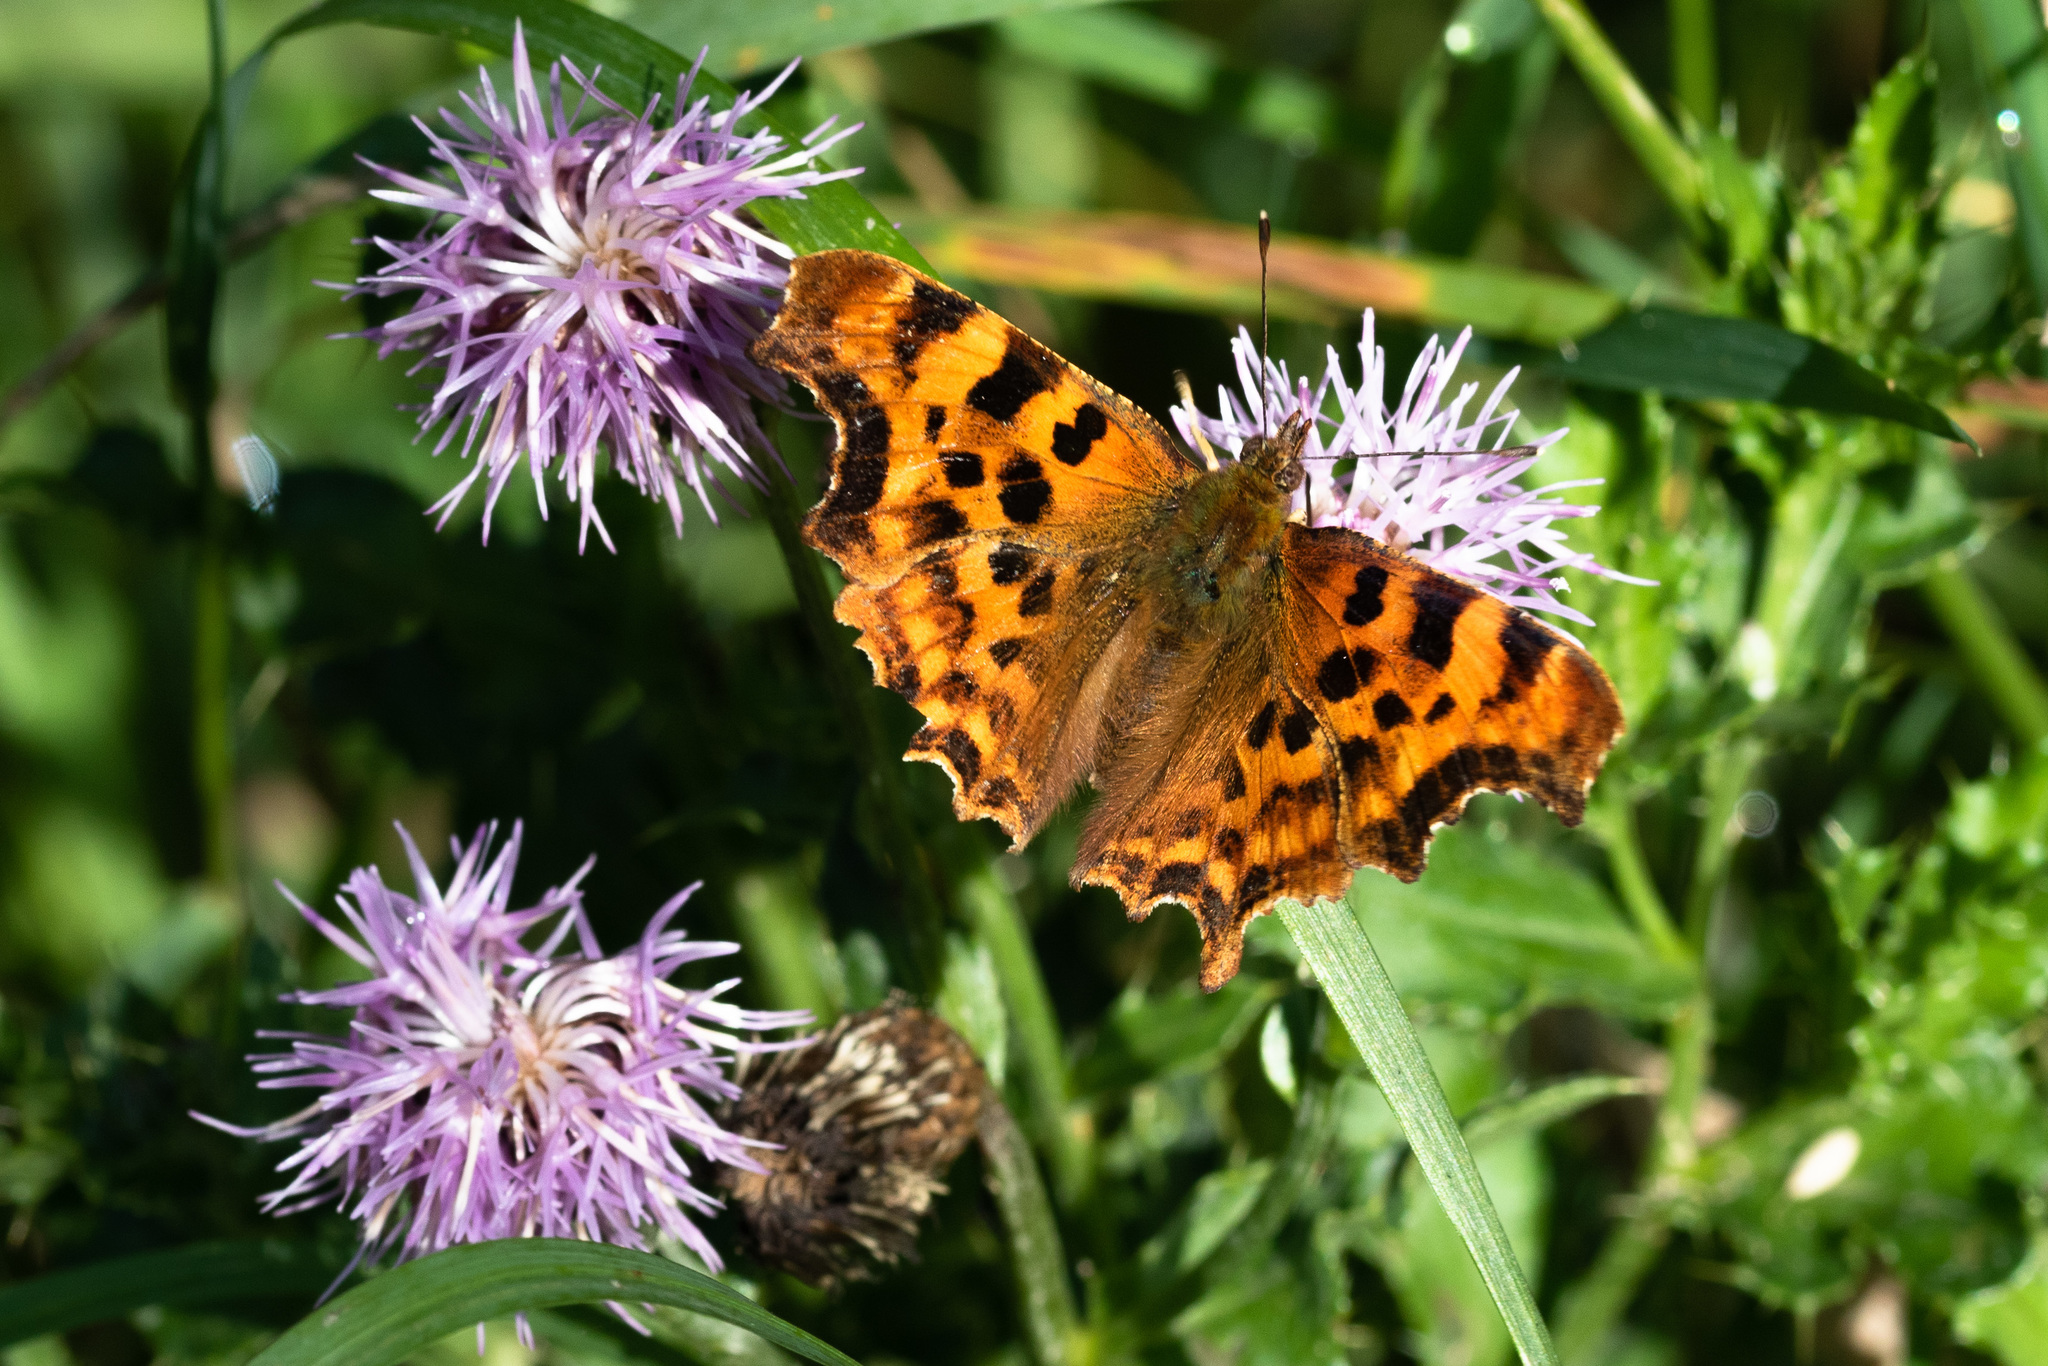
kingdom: Animalia
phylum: Arthropoda
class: Insecta
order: Lepidoptera
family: Nymphalidae
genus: Polygonia
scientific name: Polygonia c-album
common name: Comma
